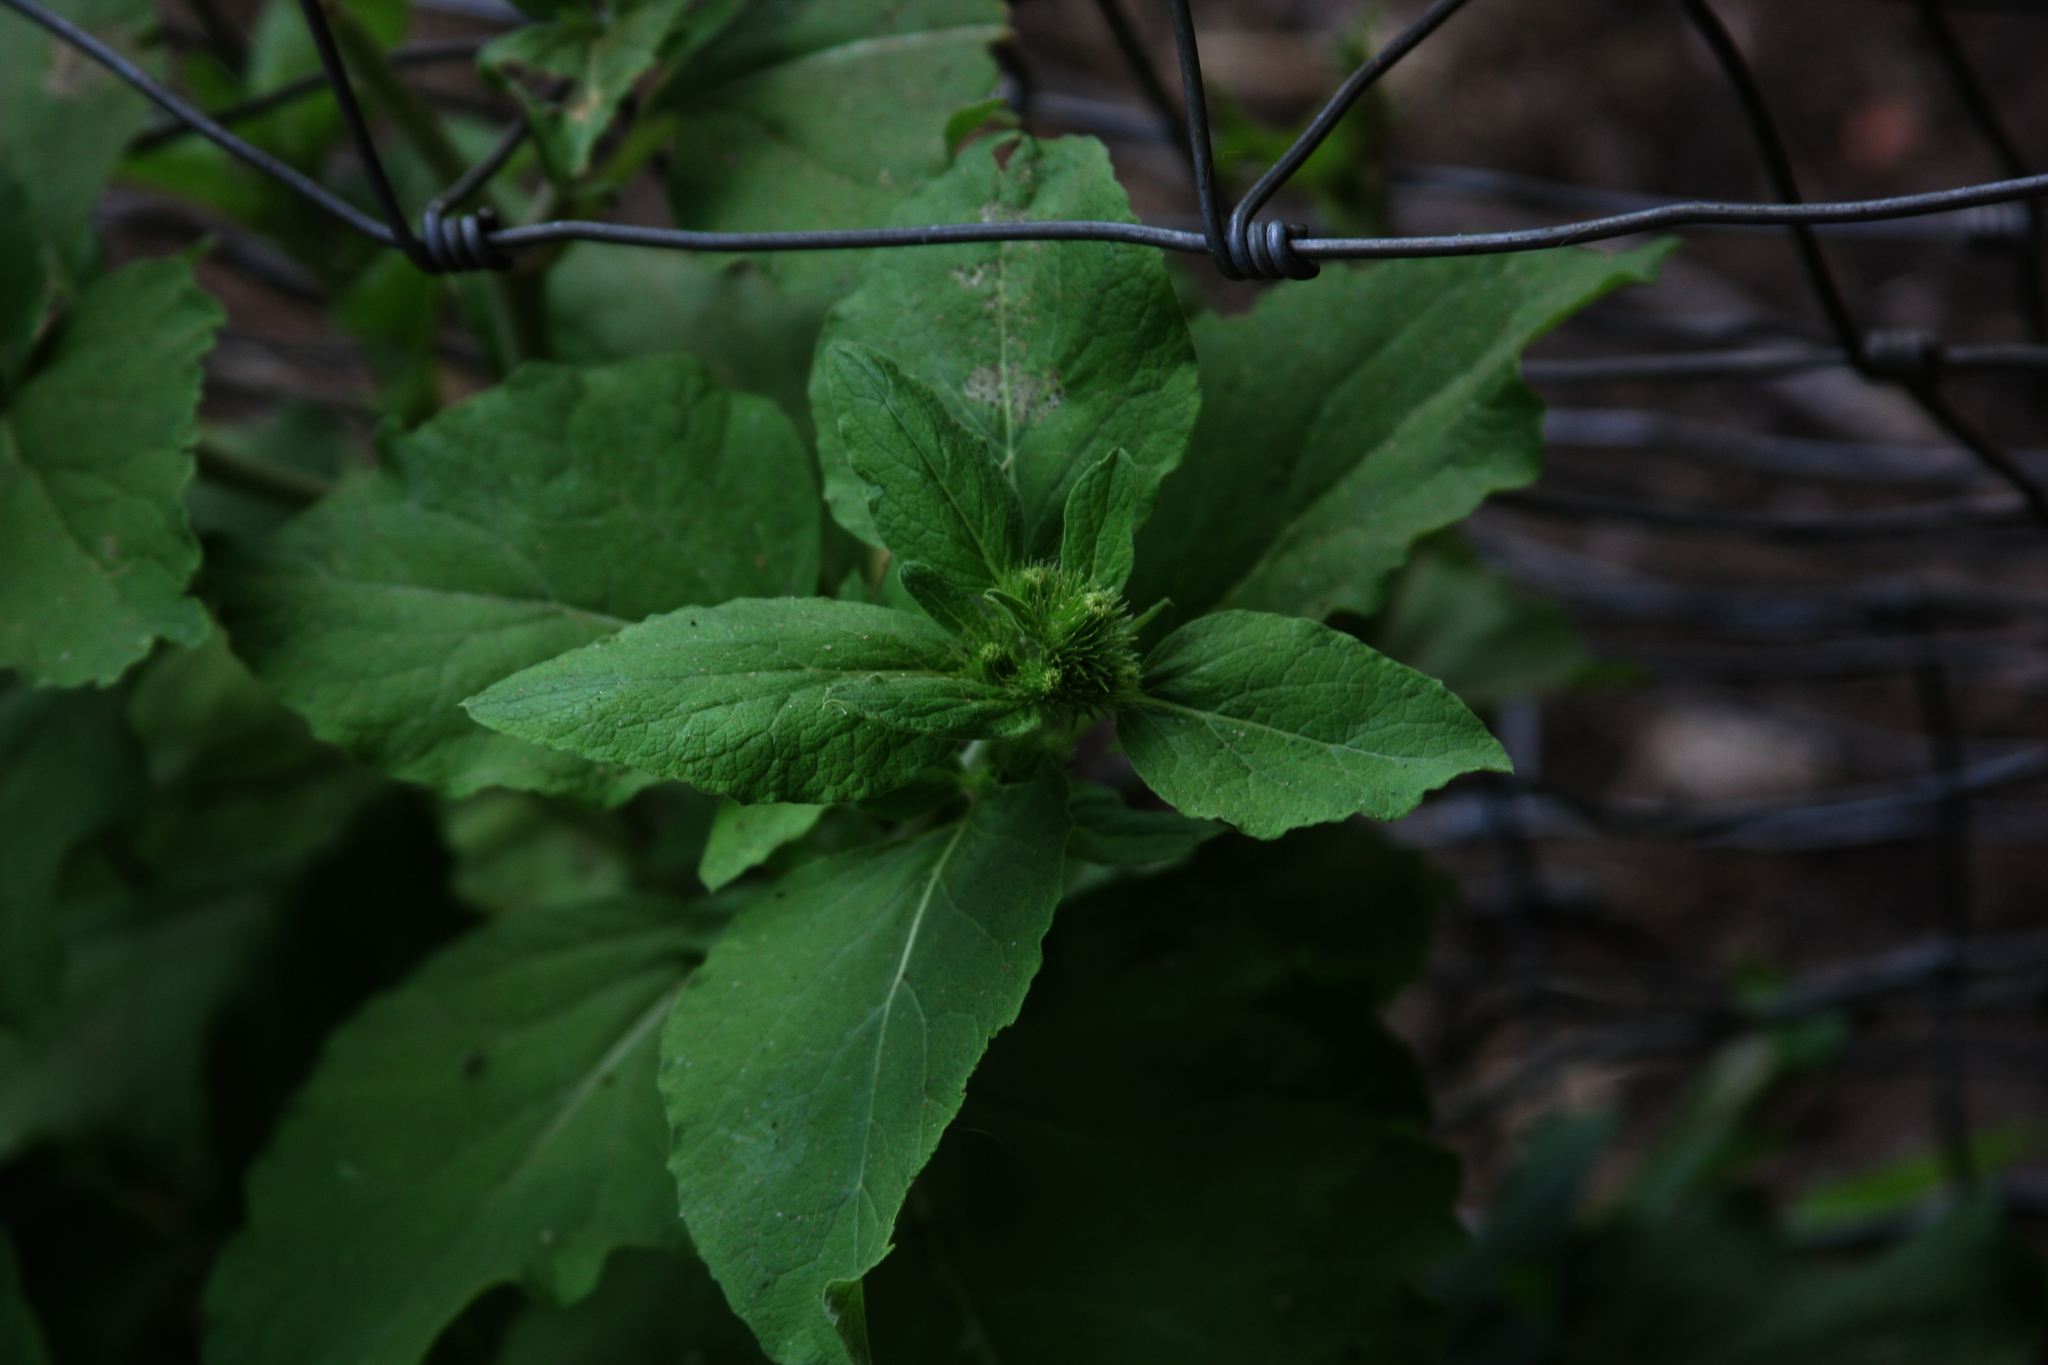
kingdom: Plantae
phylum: Tracheophyta
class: Magnoliopsida
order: Asterales
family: Asteraceae
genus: Arctium
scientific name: Arctium
